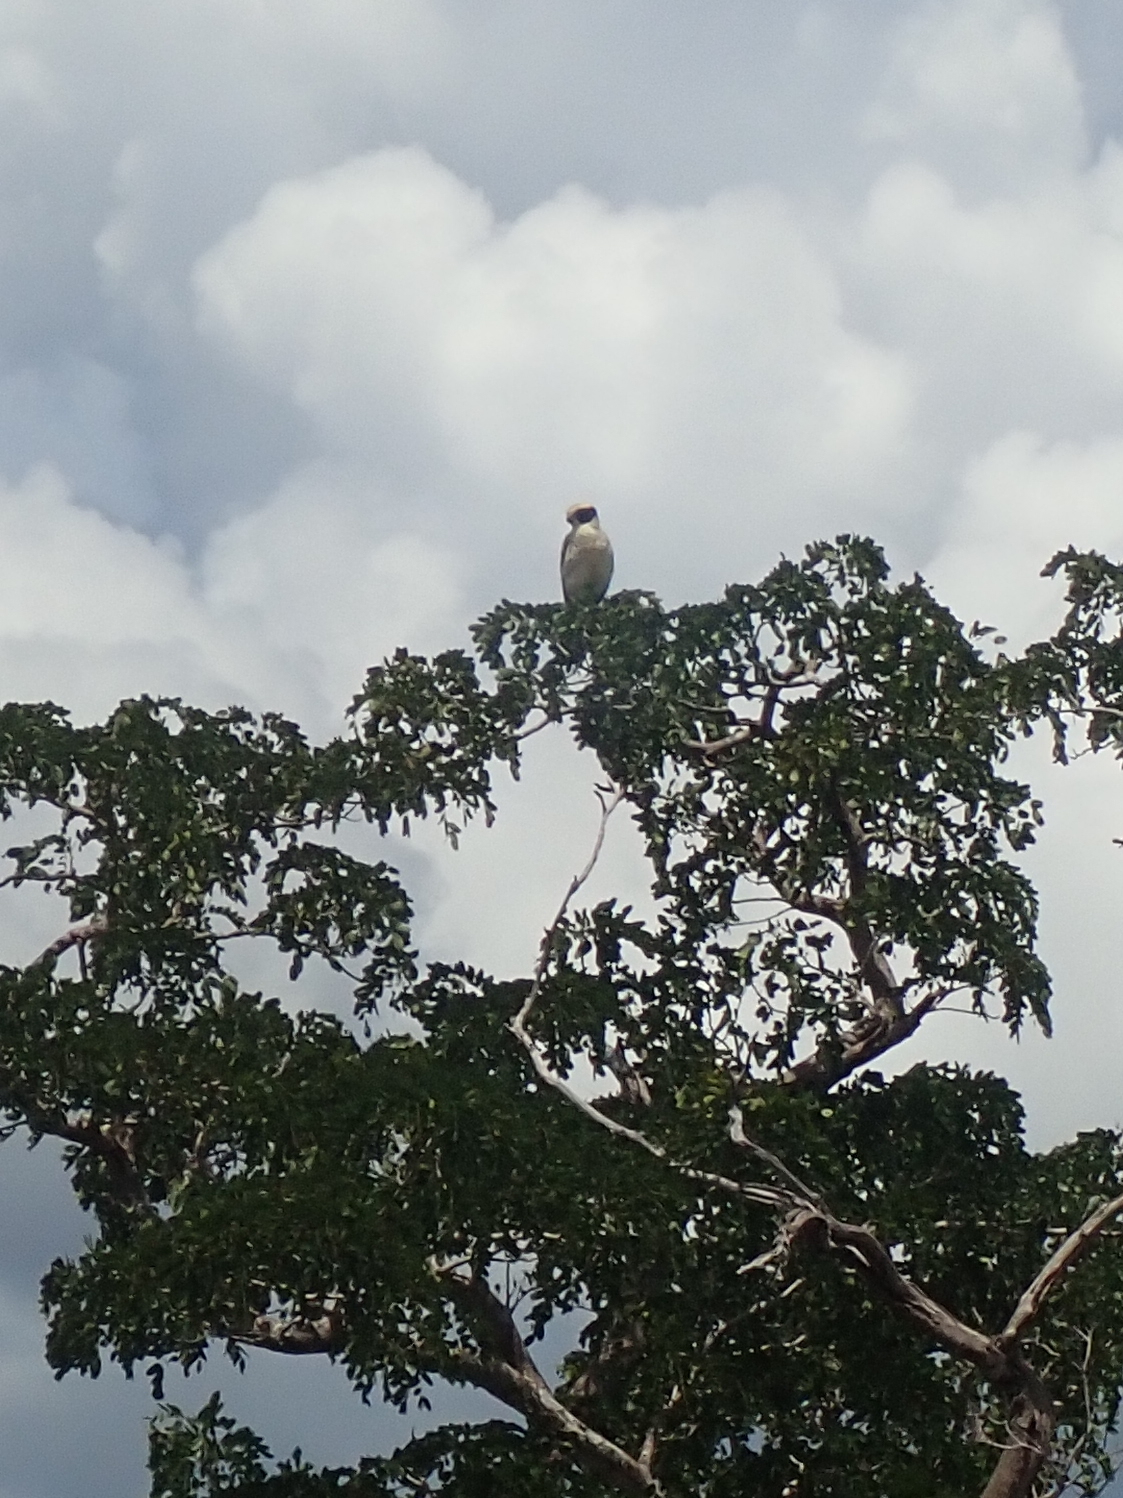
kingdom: Animalia
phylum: Chordata
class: Aves
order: Falconiformes
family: Falconidae
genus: Herpetotheres
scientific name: Herpetotheres cachinnans
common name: Laughing falcon
